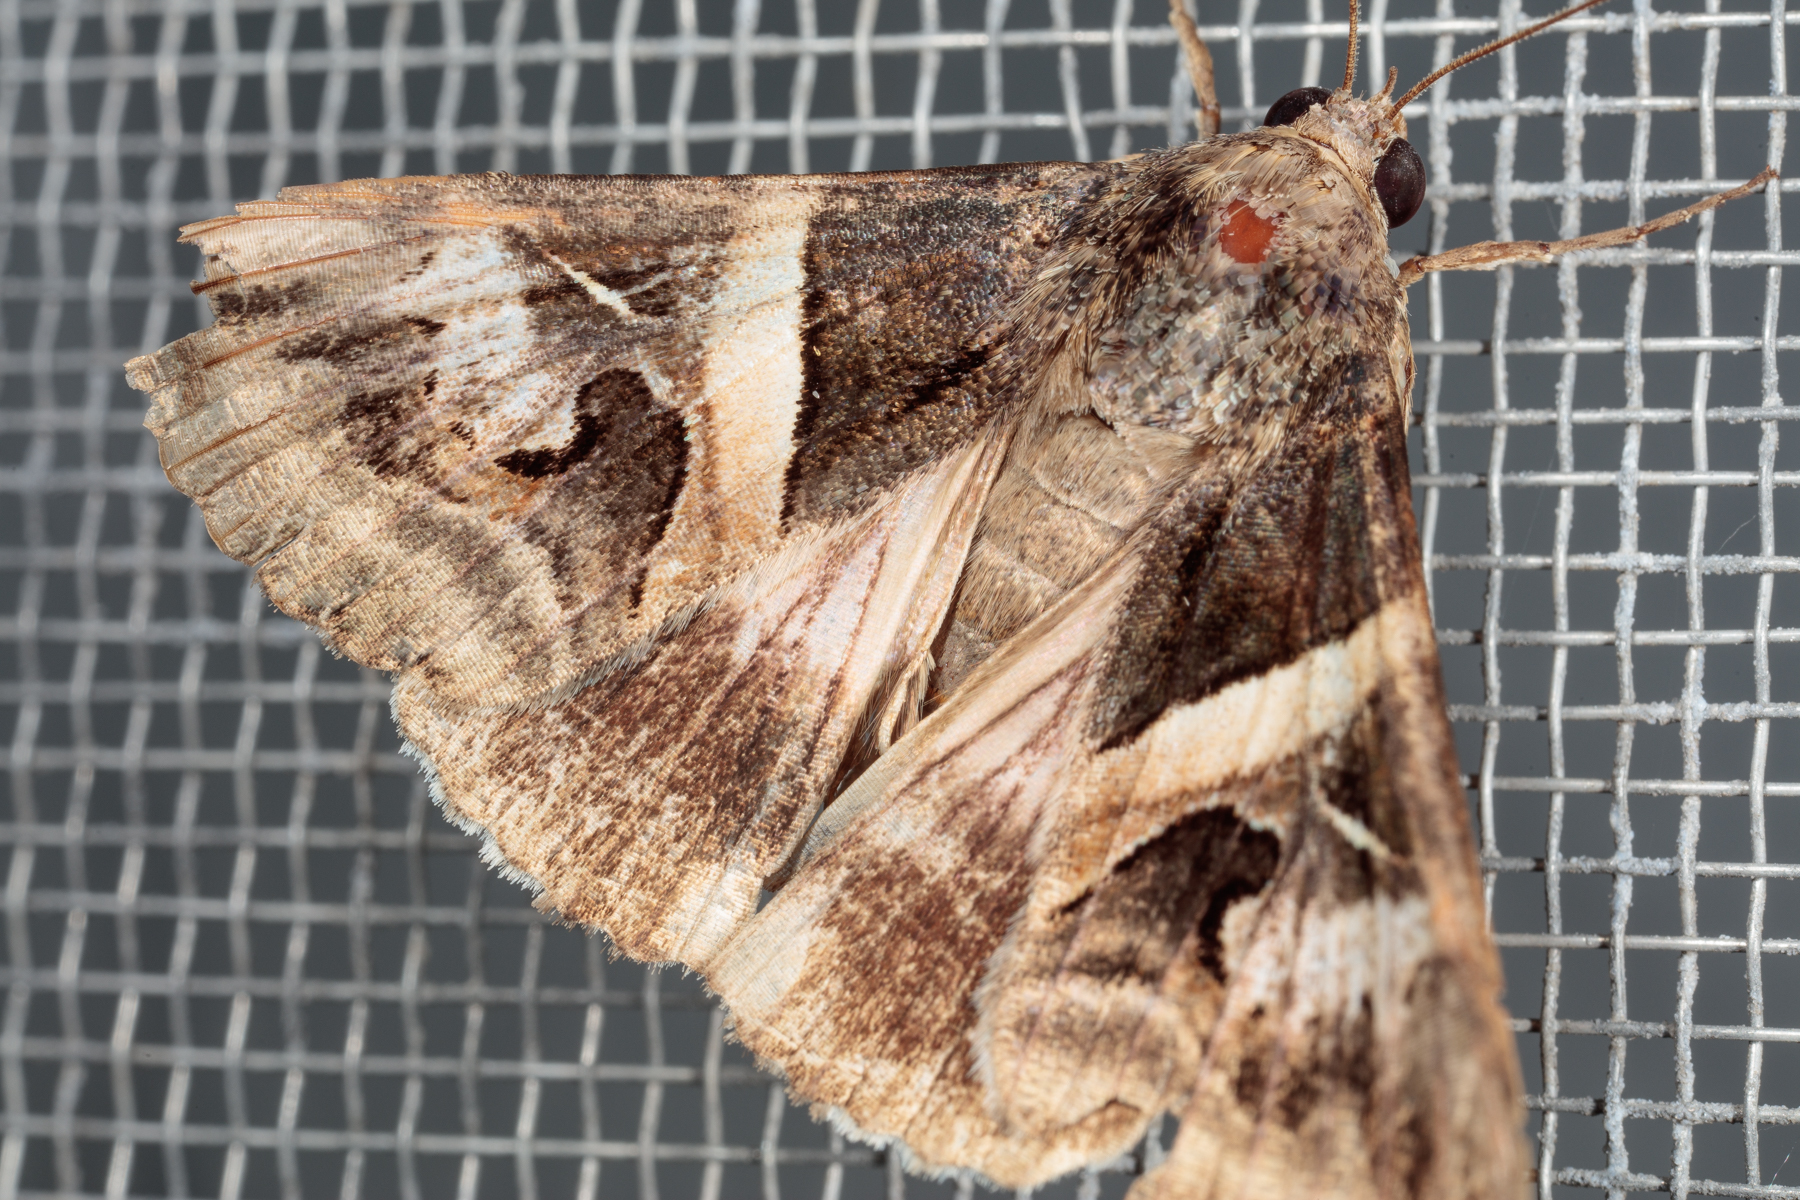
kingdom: Animalia
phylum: Arthropoda
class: Insecta
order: Lepidoptera
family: Erebidae
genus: Melipotis
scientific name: Melipotis indomita
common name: Moth
